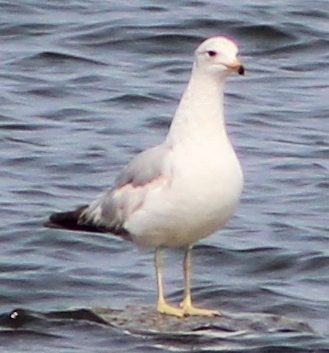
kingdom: Animalia
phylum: Chordata
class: Aves
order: Charadriiformes
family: Laridae
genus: Larus
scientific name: Larus delawarensis
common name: Ring-billed gull
